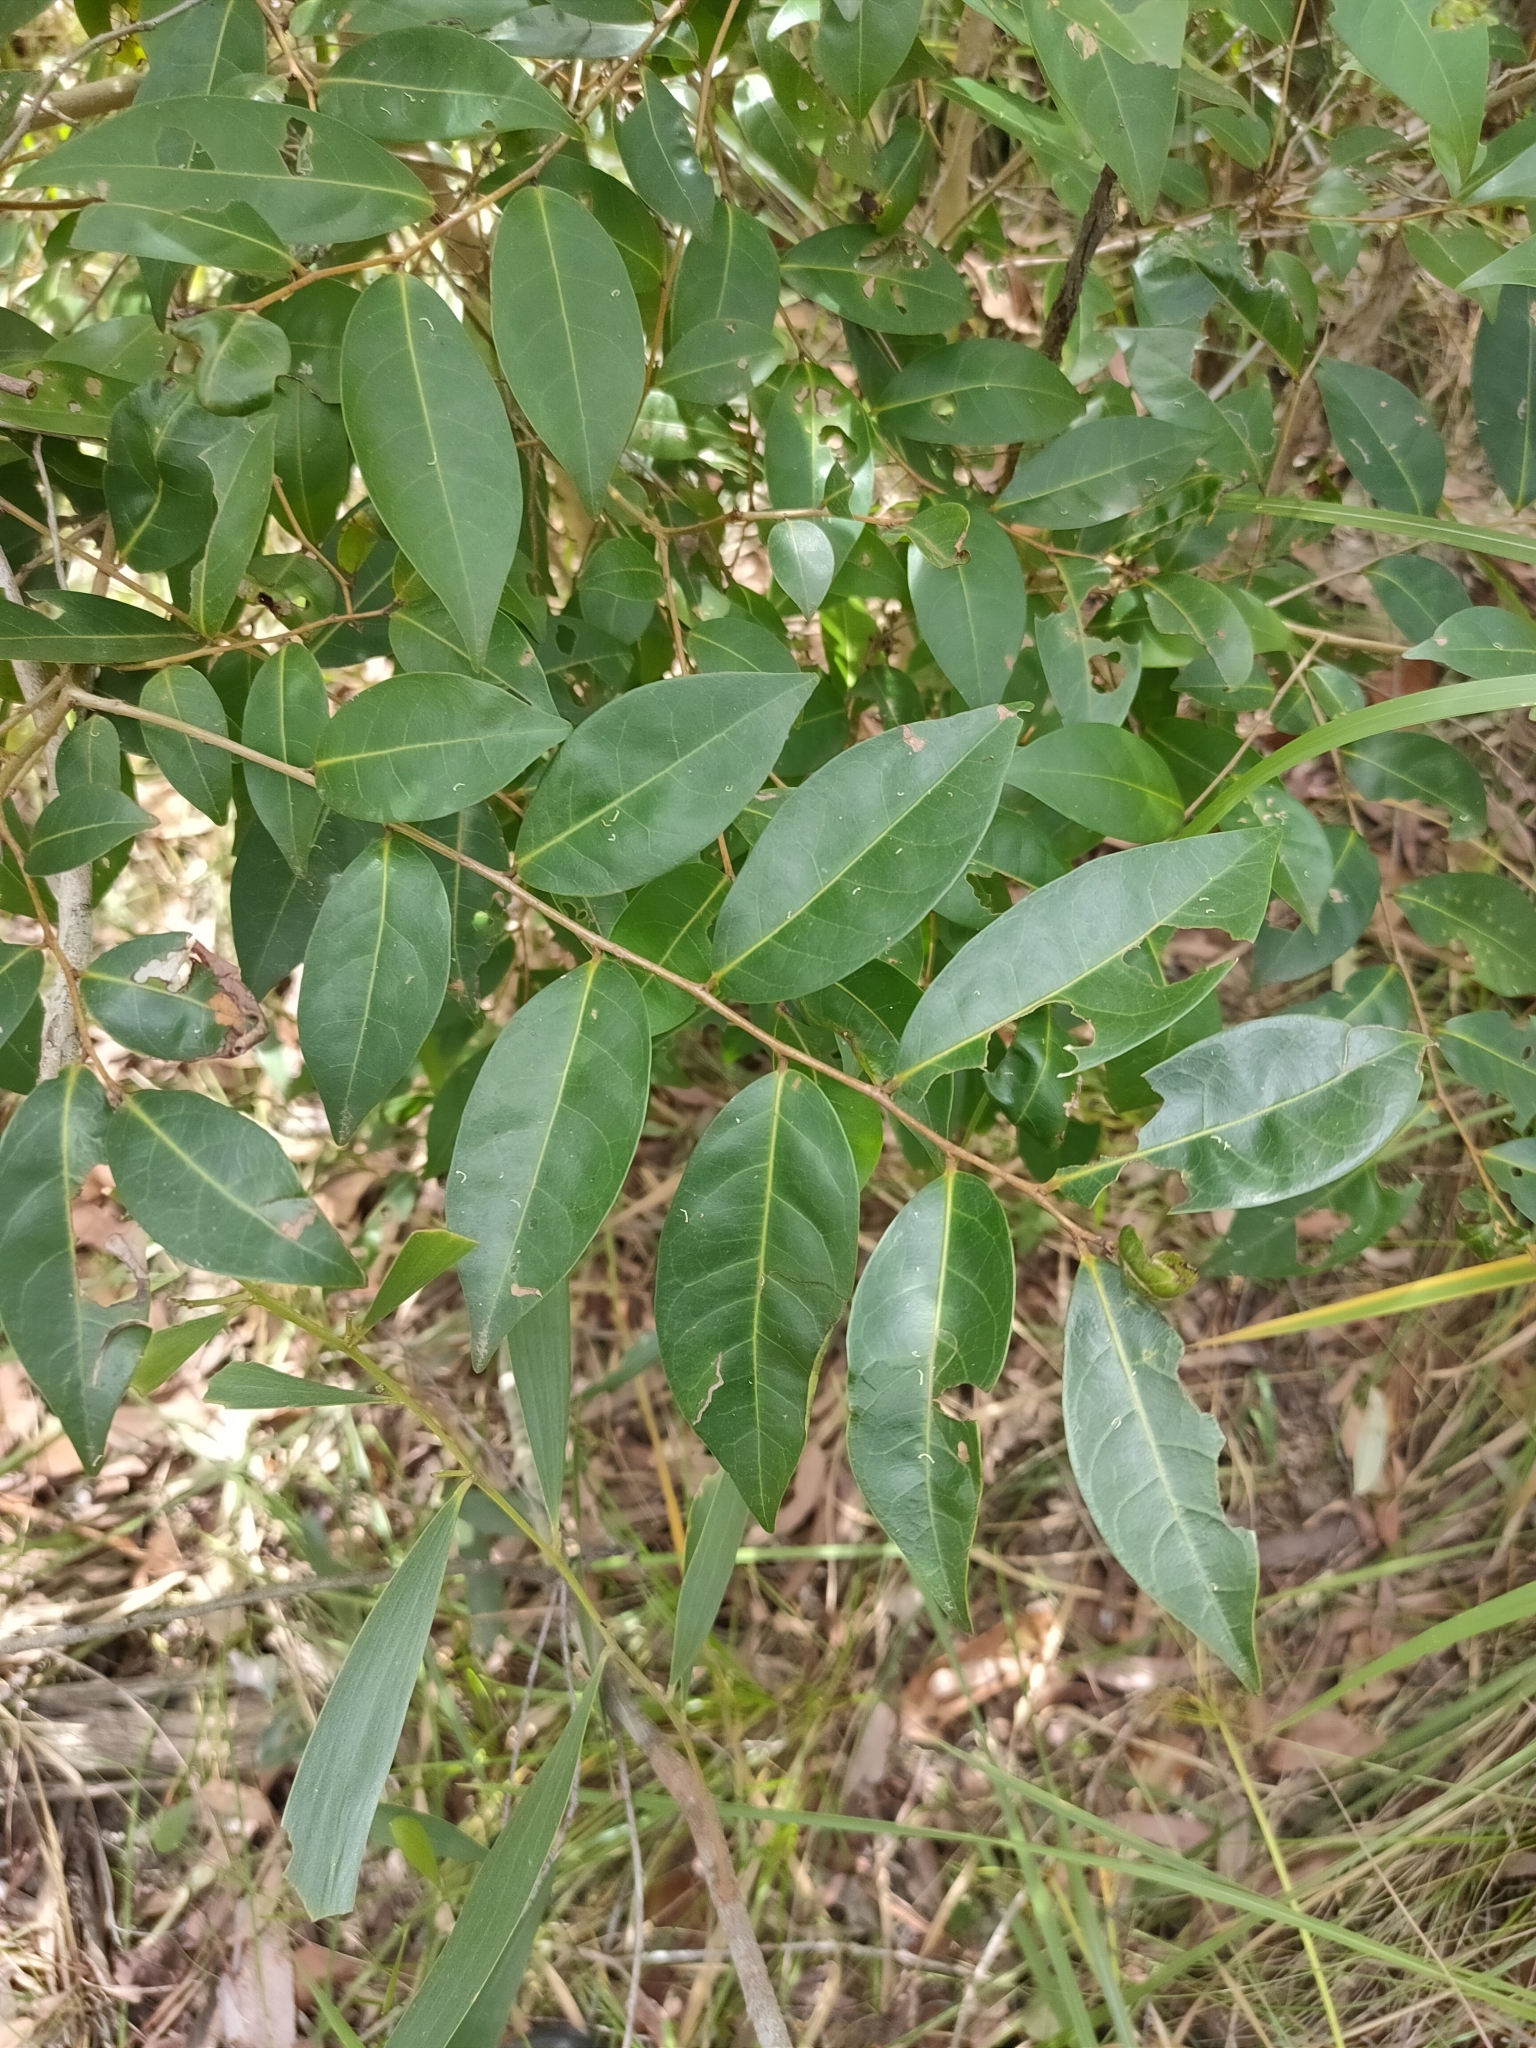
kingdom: Plantae
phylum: Tracheophyta
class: Magnoliopsida
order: Malpighiales
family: Phyllanthaceae
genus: Glochidion
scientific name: Glochidion ferdinandi
